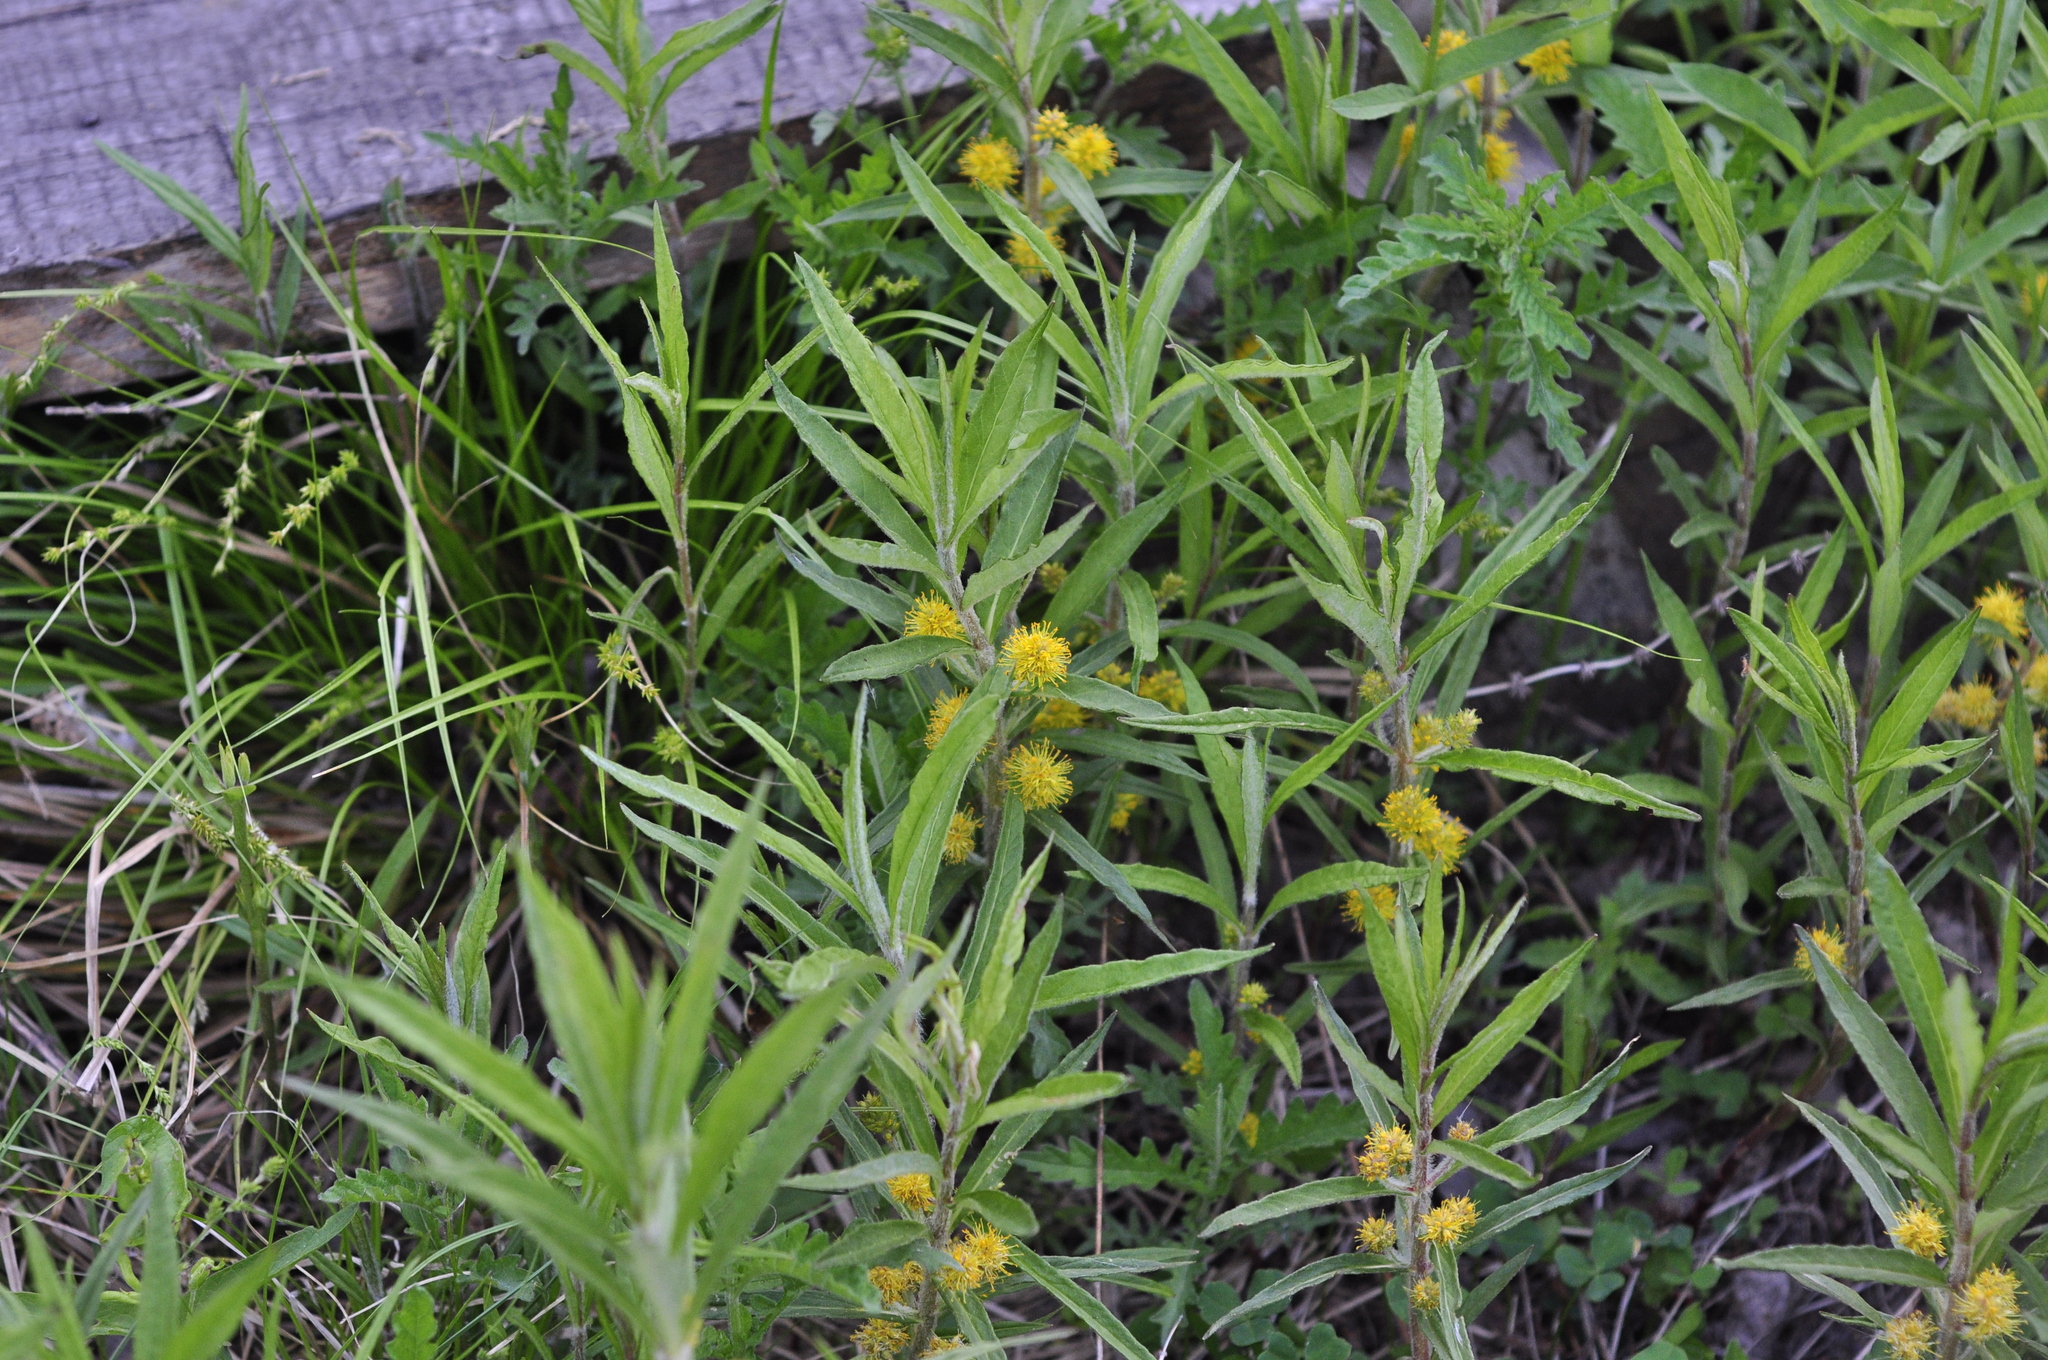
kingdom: Plantae
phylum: Tracheophyta
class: Magnoliopsida
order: Ericales
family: Primulaceae
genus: Lysimachia
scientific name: Lysimachia thyrsiflora
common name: Tufted loosestrife
